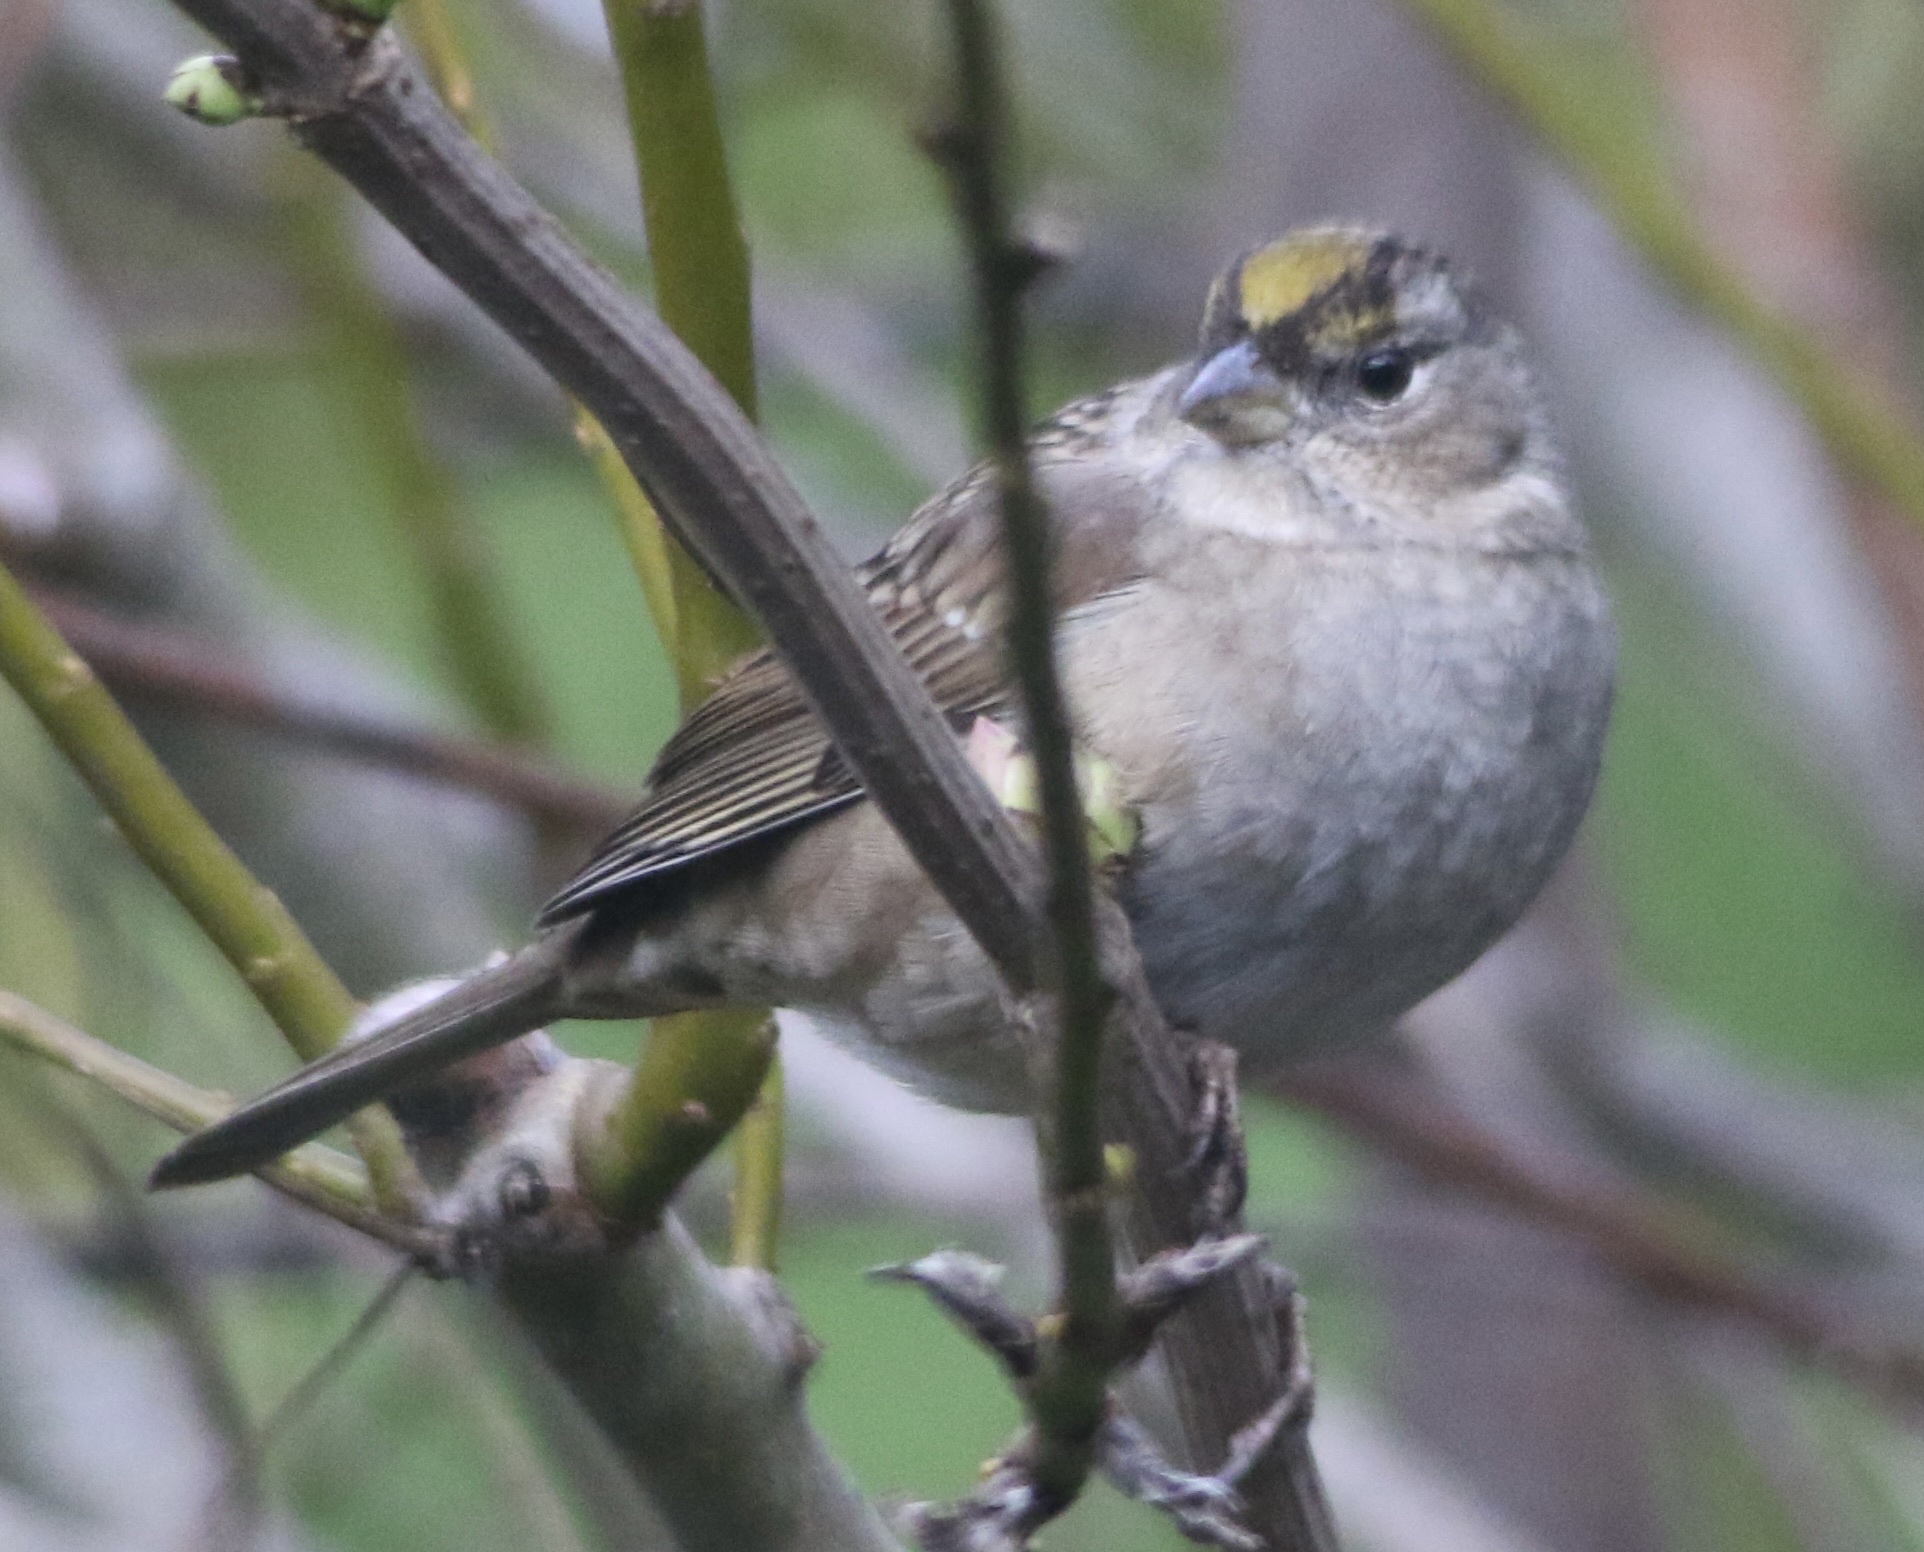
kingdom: Animalia
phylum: Chordata
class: Aves
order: Passeriformes
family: Passerellidae
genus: Zonotrichia
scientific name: Zonotrichia atricapilla
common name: Golden-crowned sparrow
